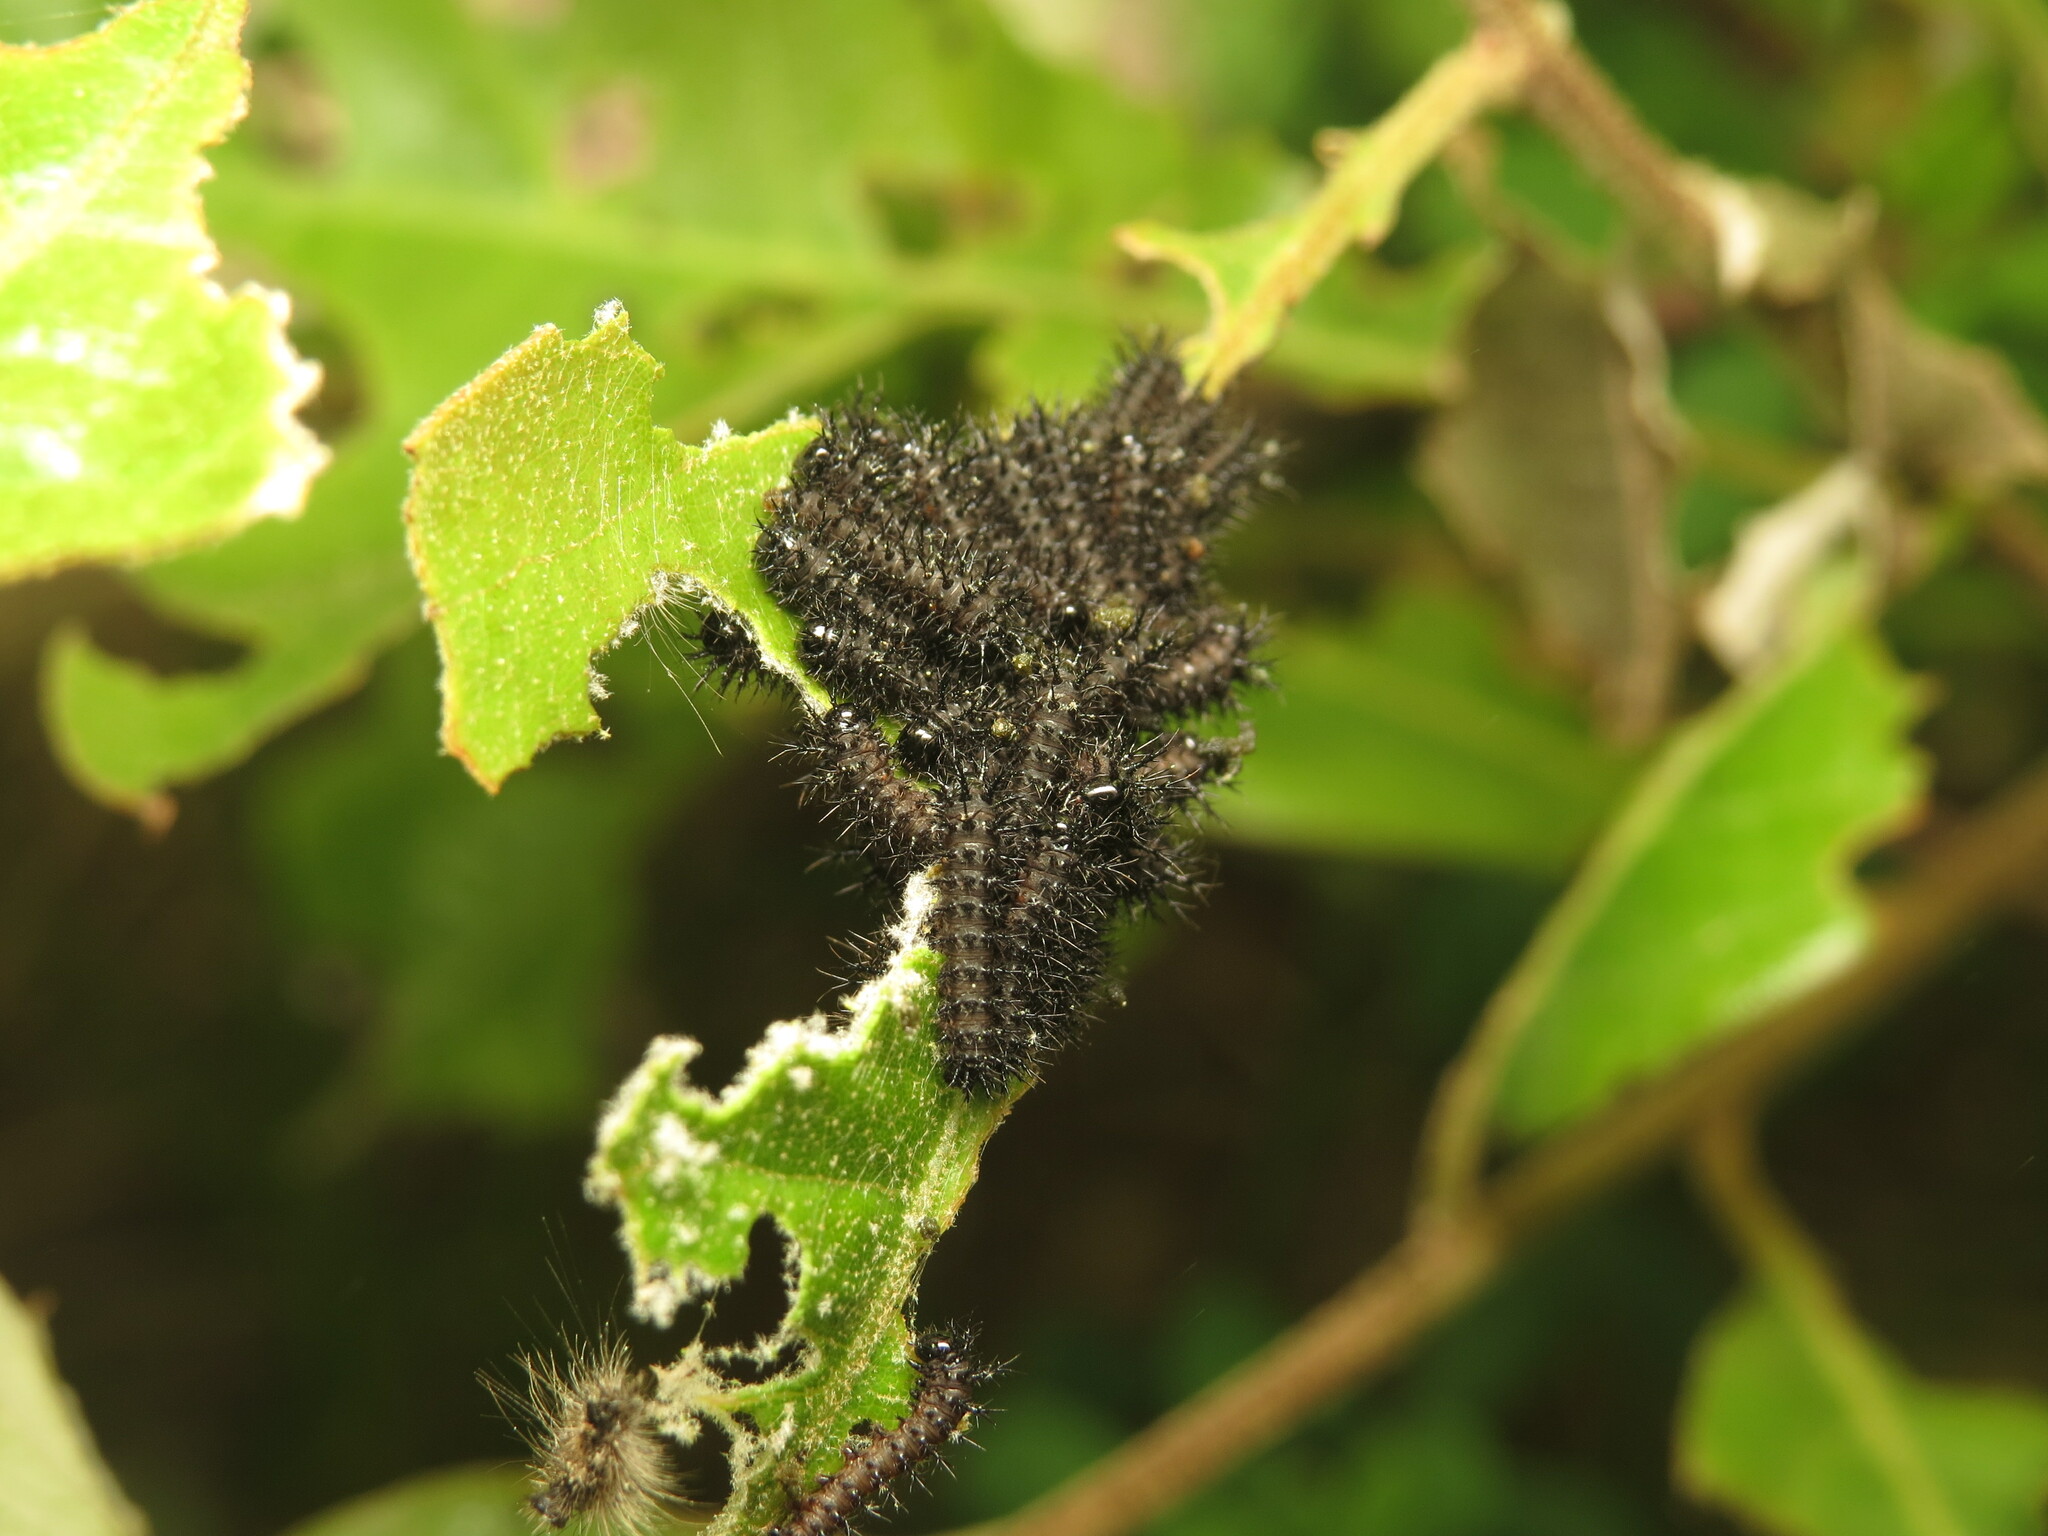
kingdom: Animalia
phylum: Arthropoda
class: Insecta
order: Lepidoptera
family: Saturniidae
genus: Hemileuca
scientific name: Hemileuca maia
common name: Eastern buckmoth
